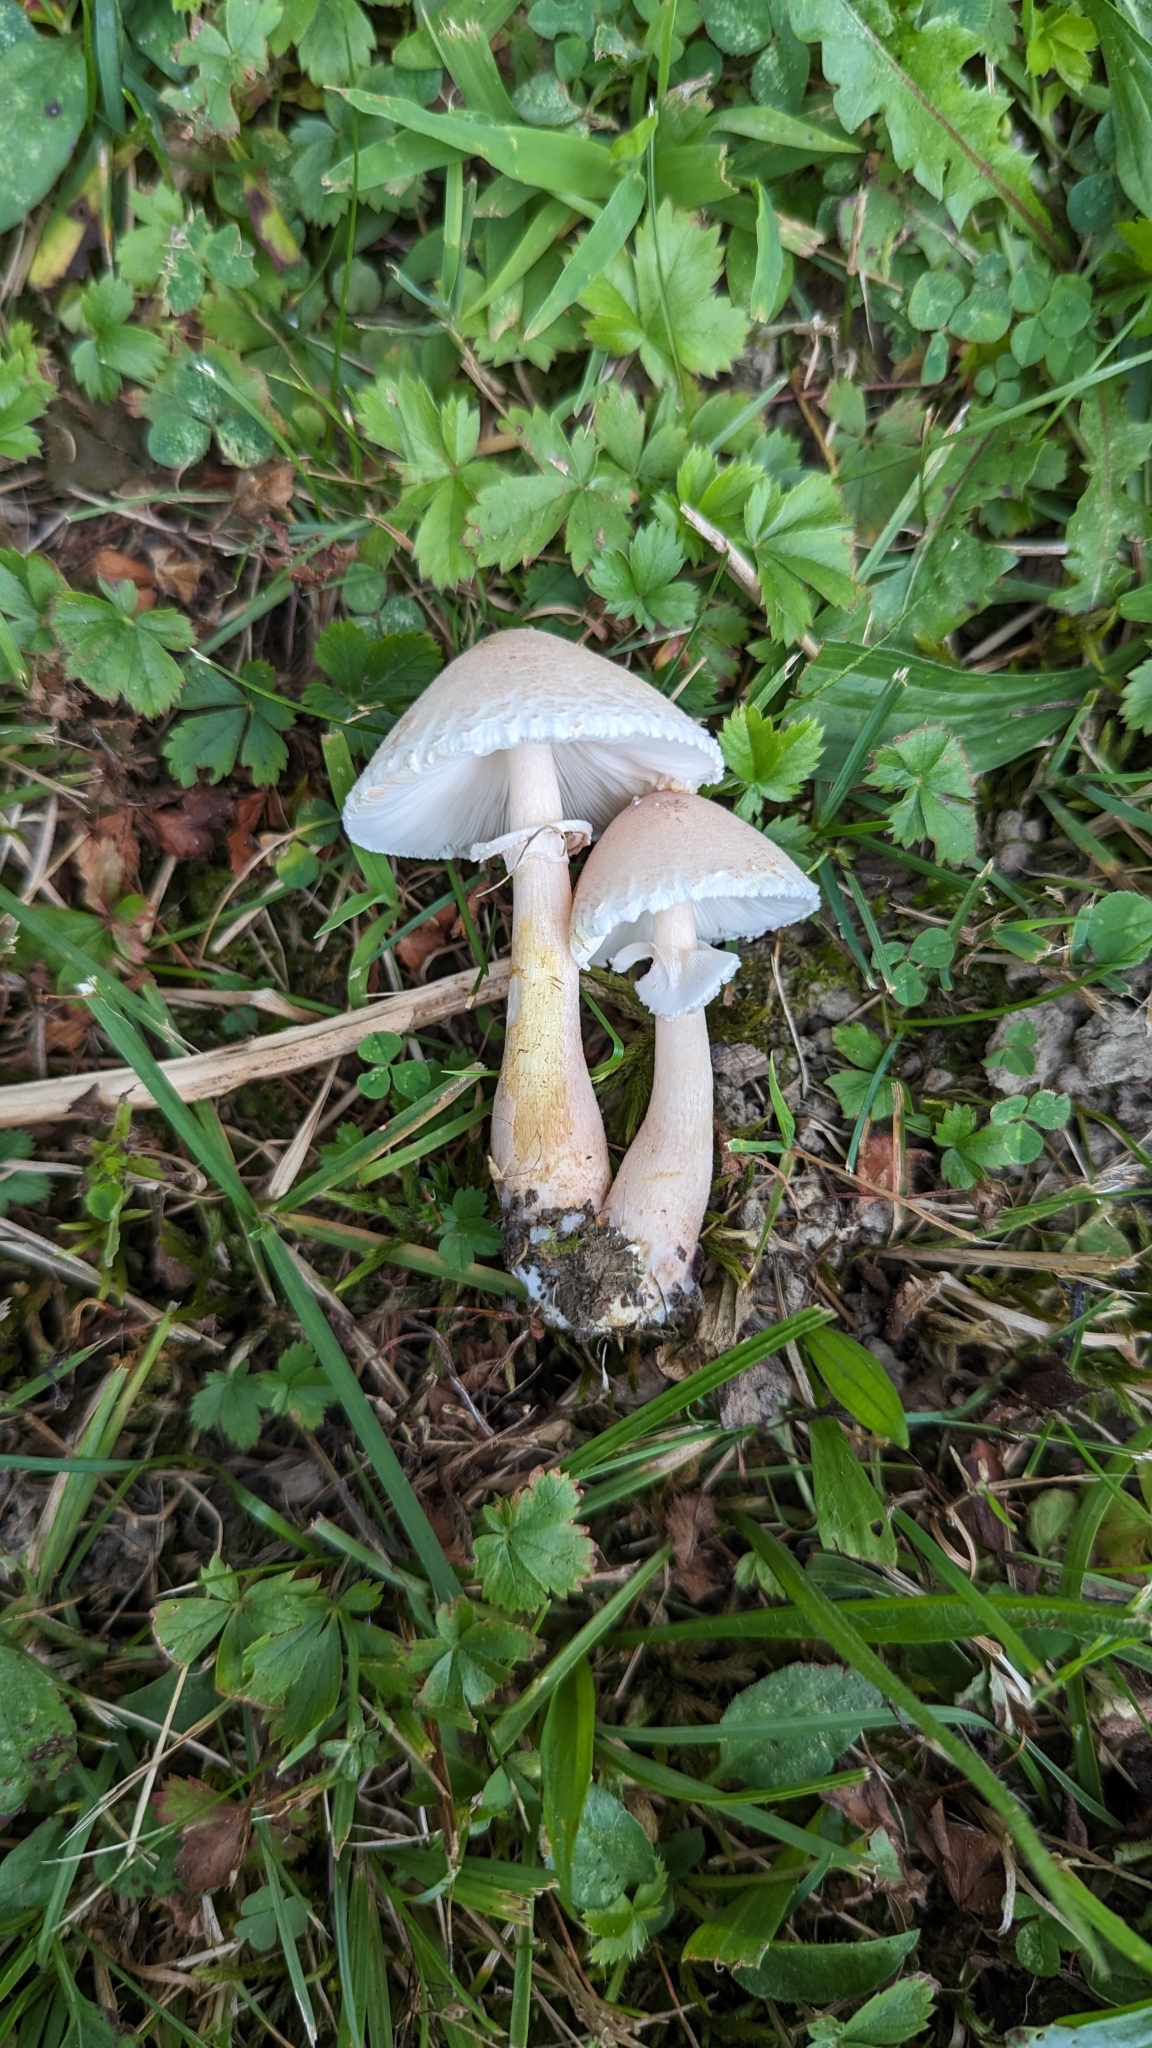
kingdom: Fungi
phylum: Basidiomycota
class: Agaricomycetes
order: Agaricales
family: Agaricaceae
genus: Leucoagaricus
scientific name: Leucoagaricus americanus
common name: Reddening lepiota
